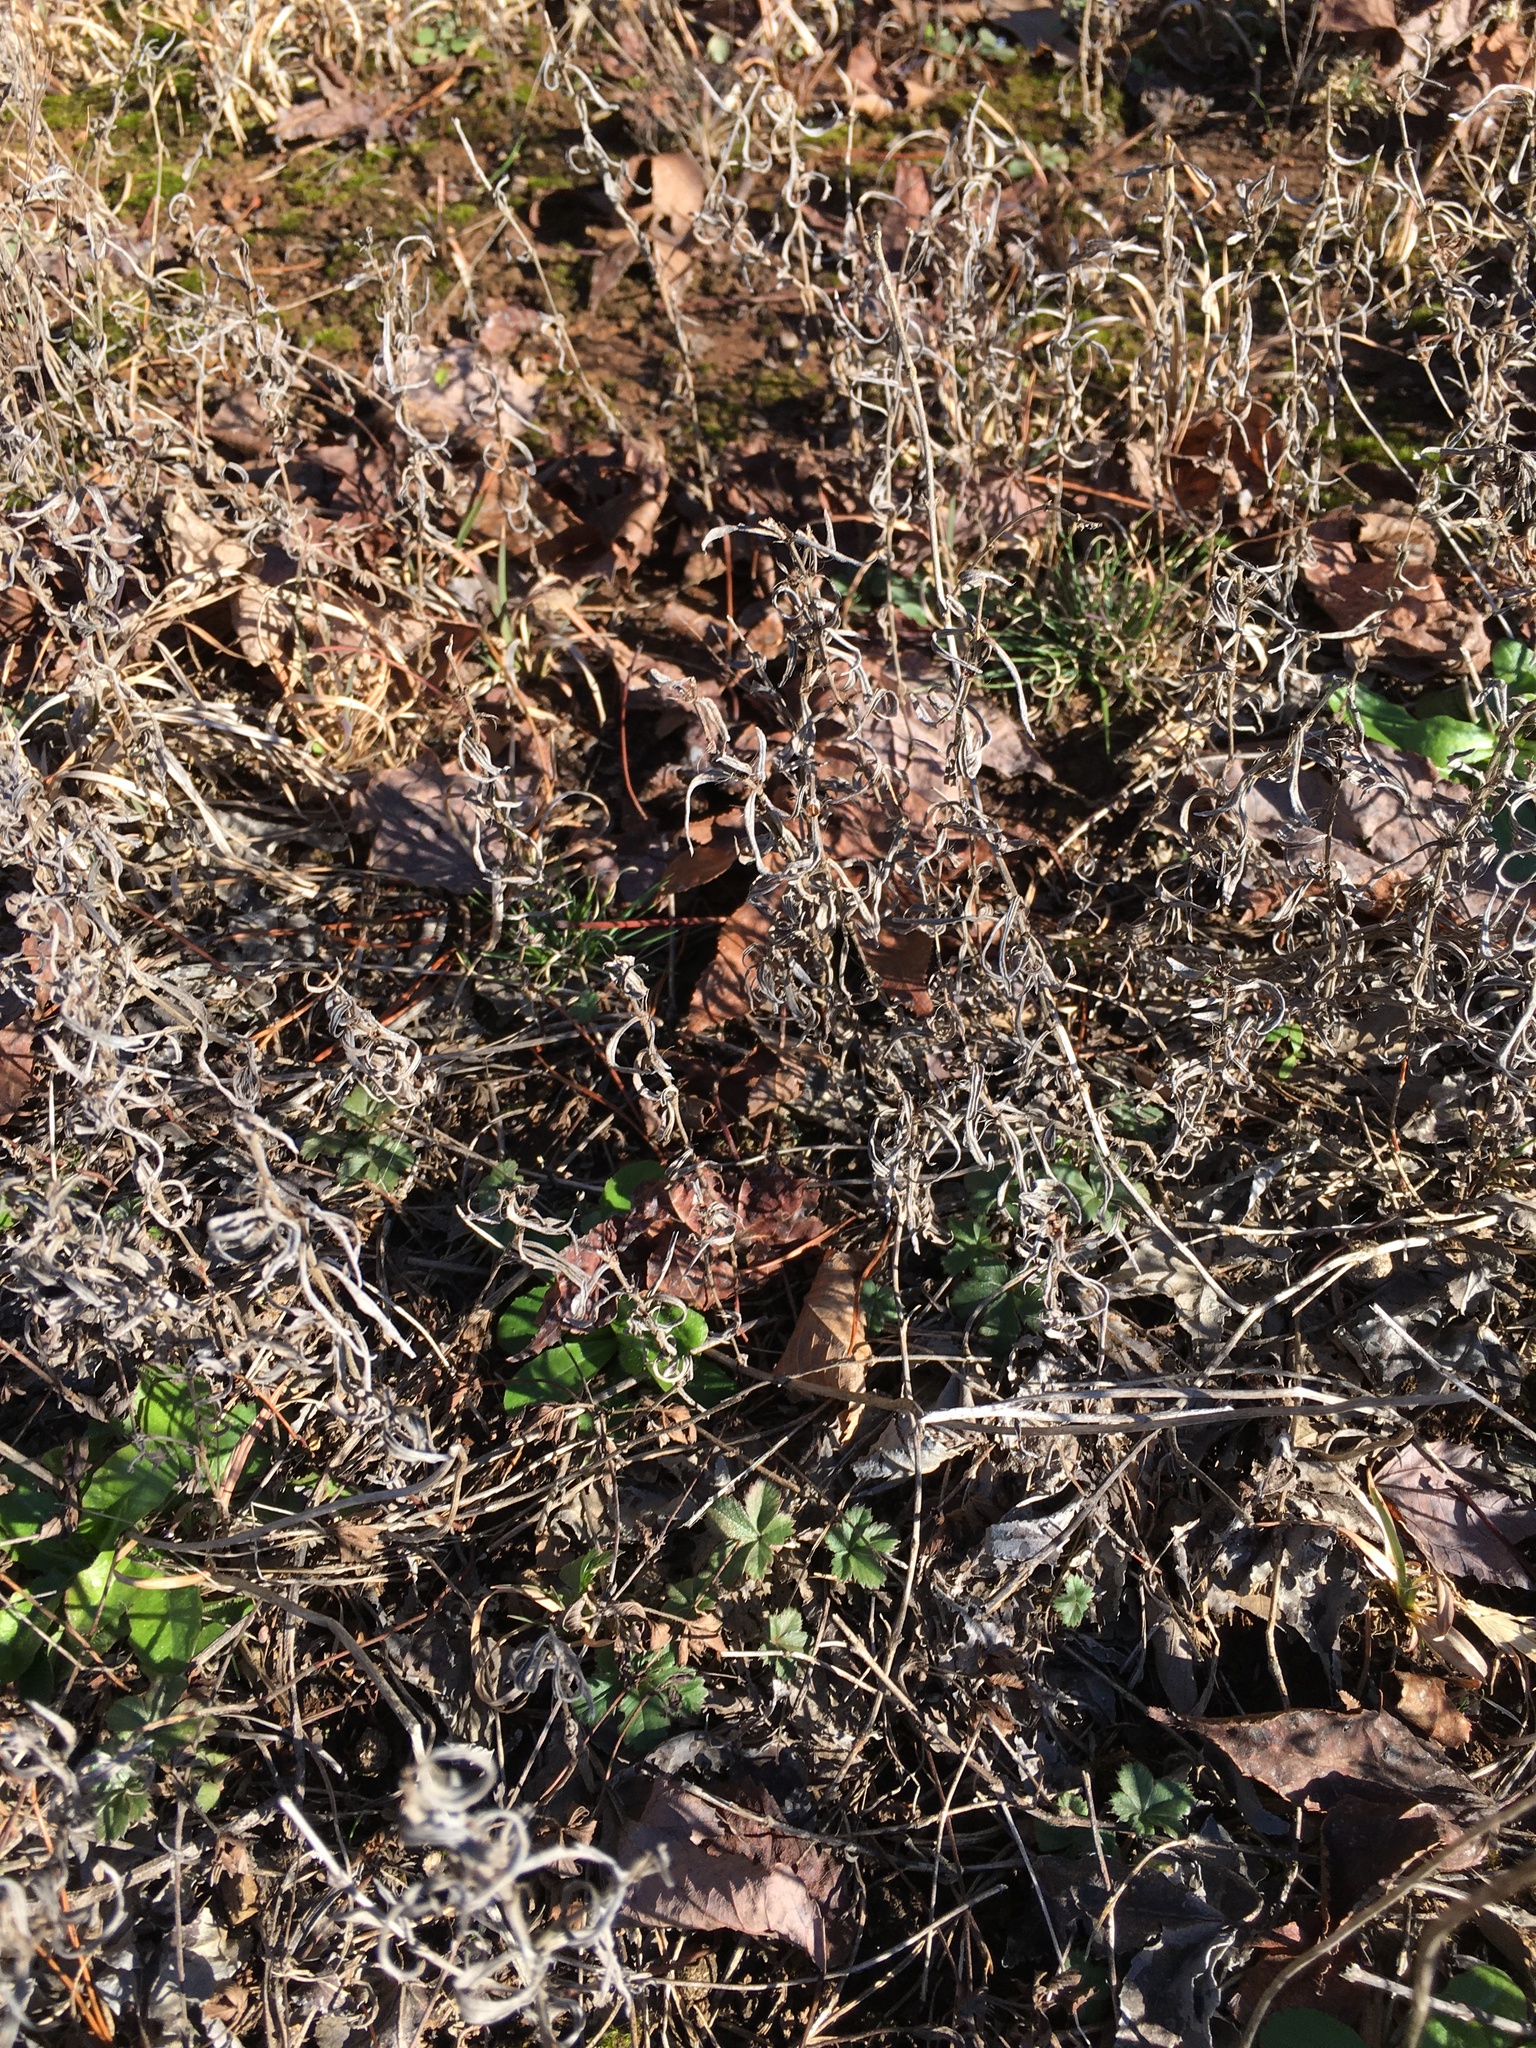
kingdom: Plantae
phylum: Tracheophyta
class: Magnoliopsida
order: Gentianales
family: Rubiaceae
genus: Hexasepalum
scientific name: Hexasepalum teres
